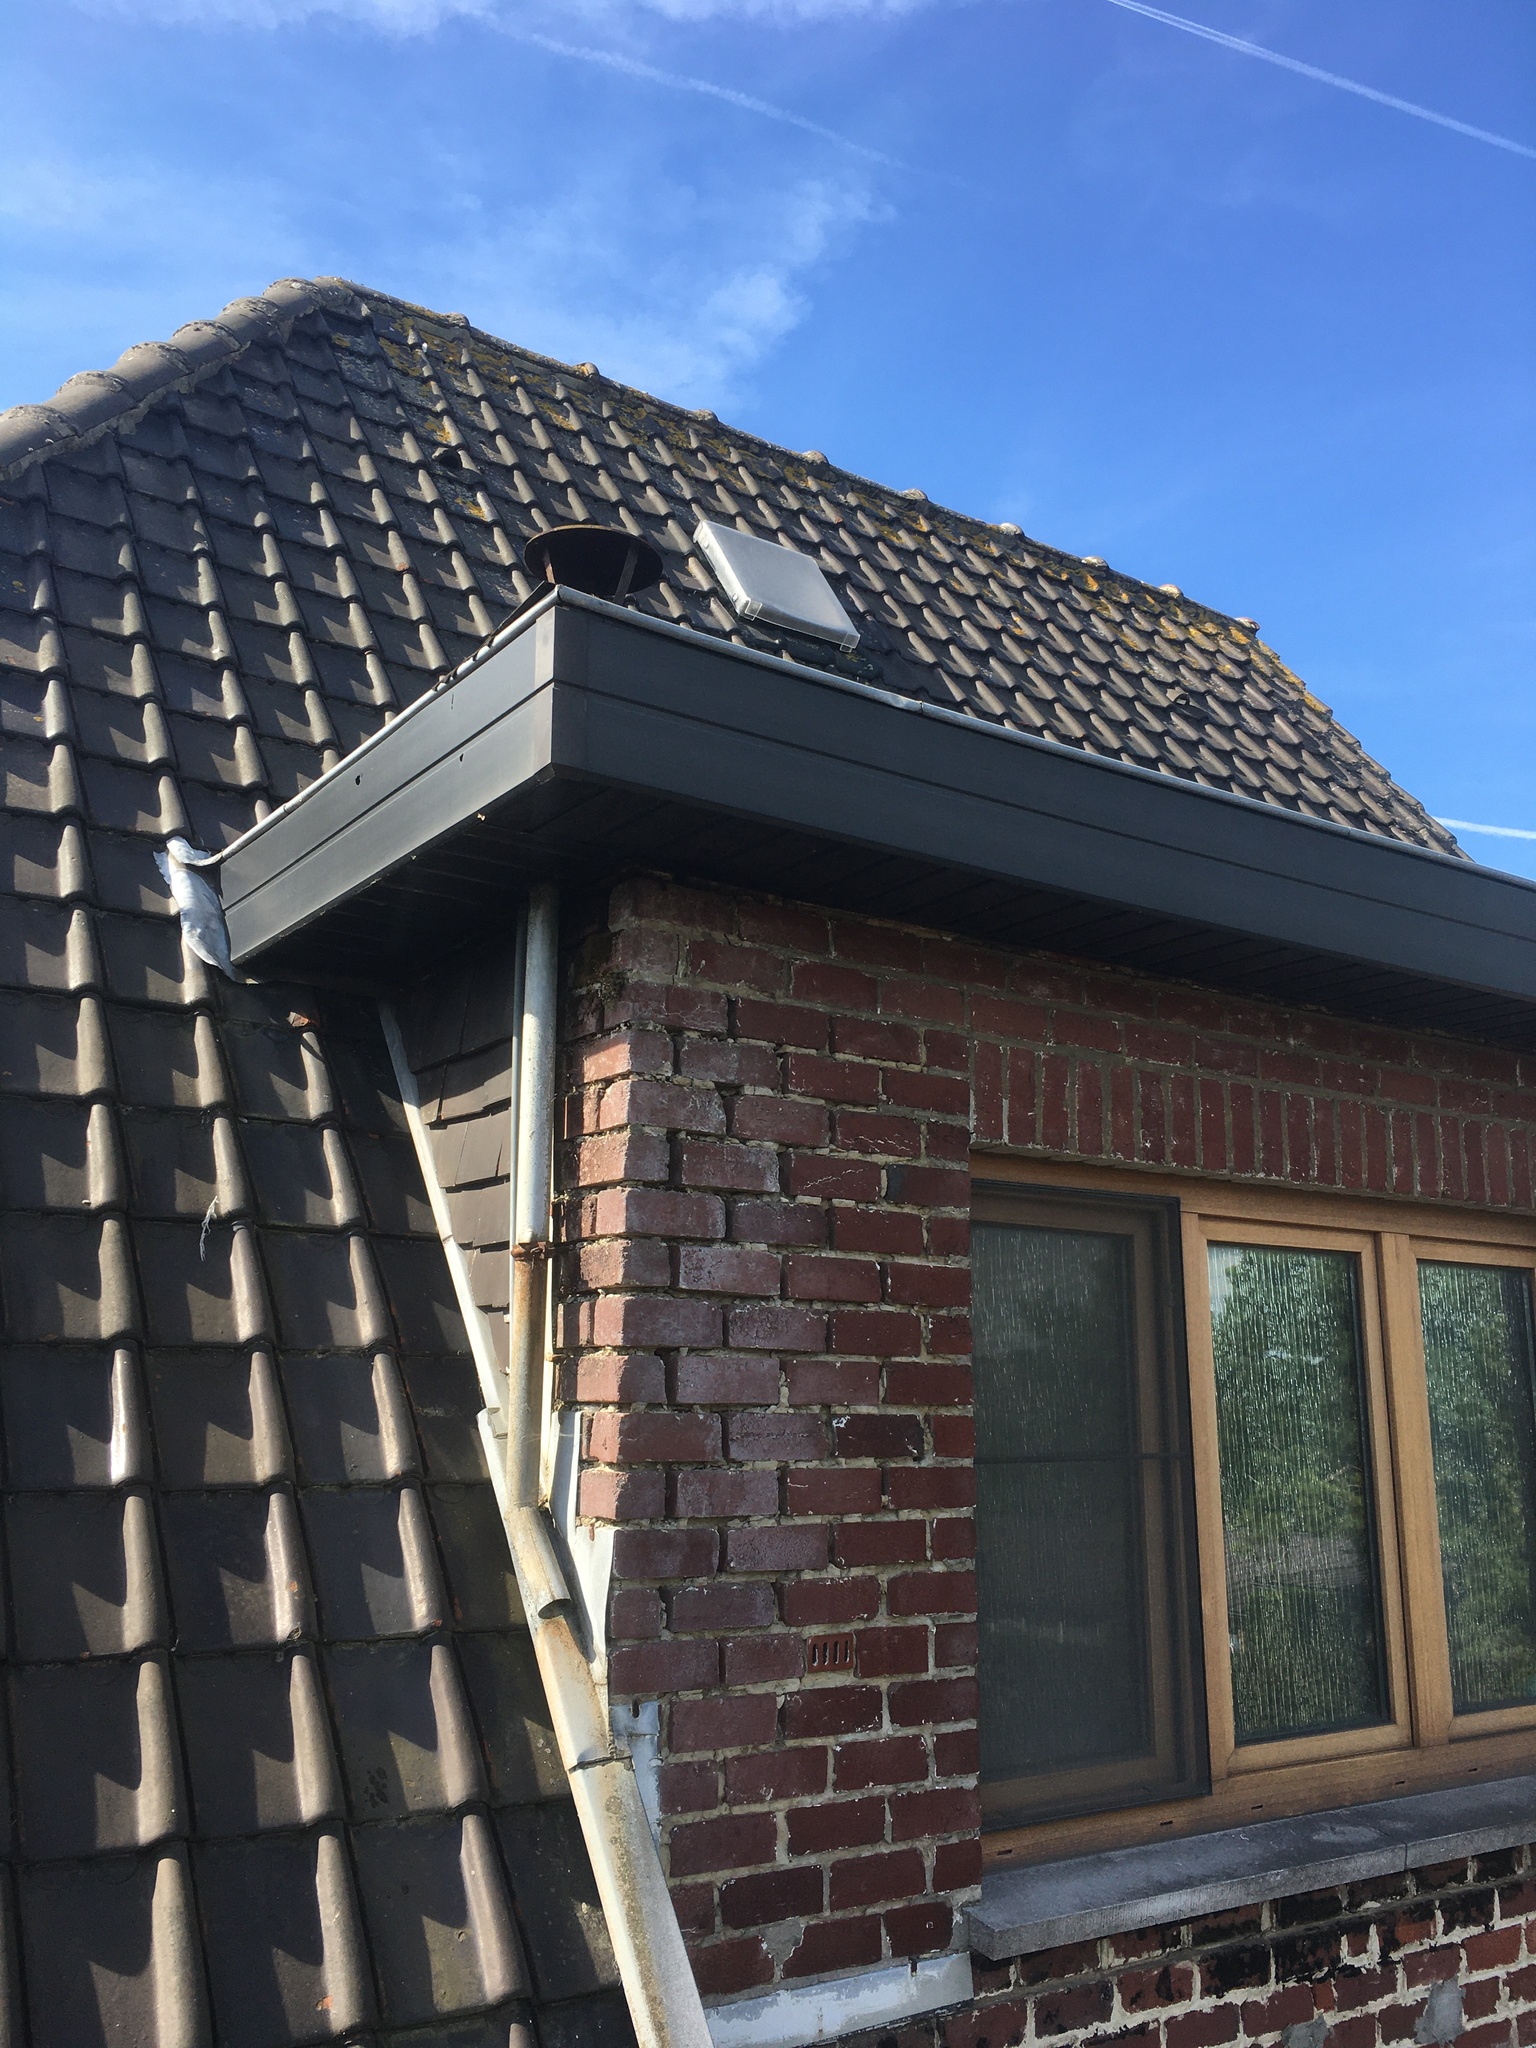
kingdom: Animalia
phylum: Arthropoda
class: Insecta
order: Hymenoptera
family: Vespidae
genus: Vespa
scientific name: Vespa velutina
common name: Asian hornet
